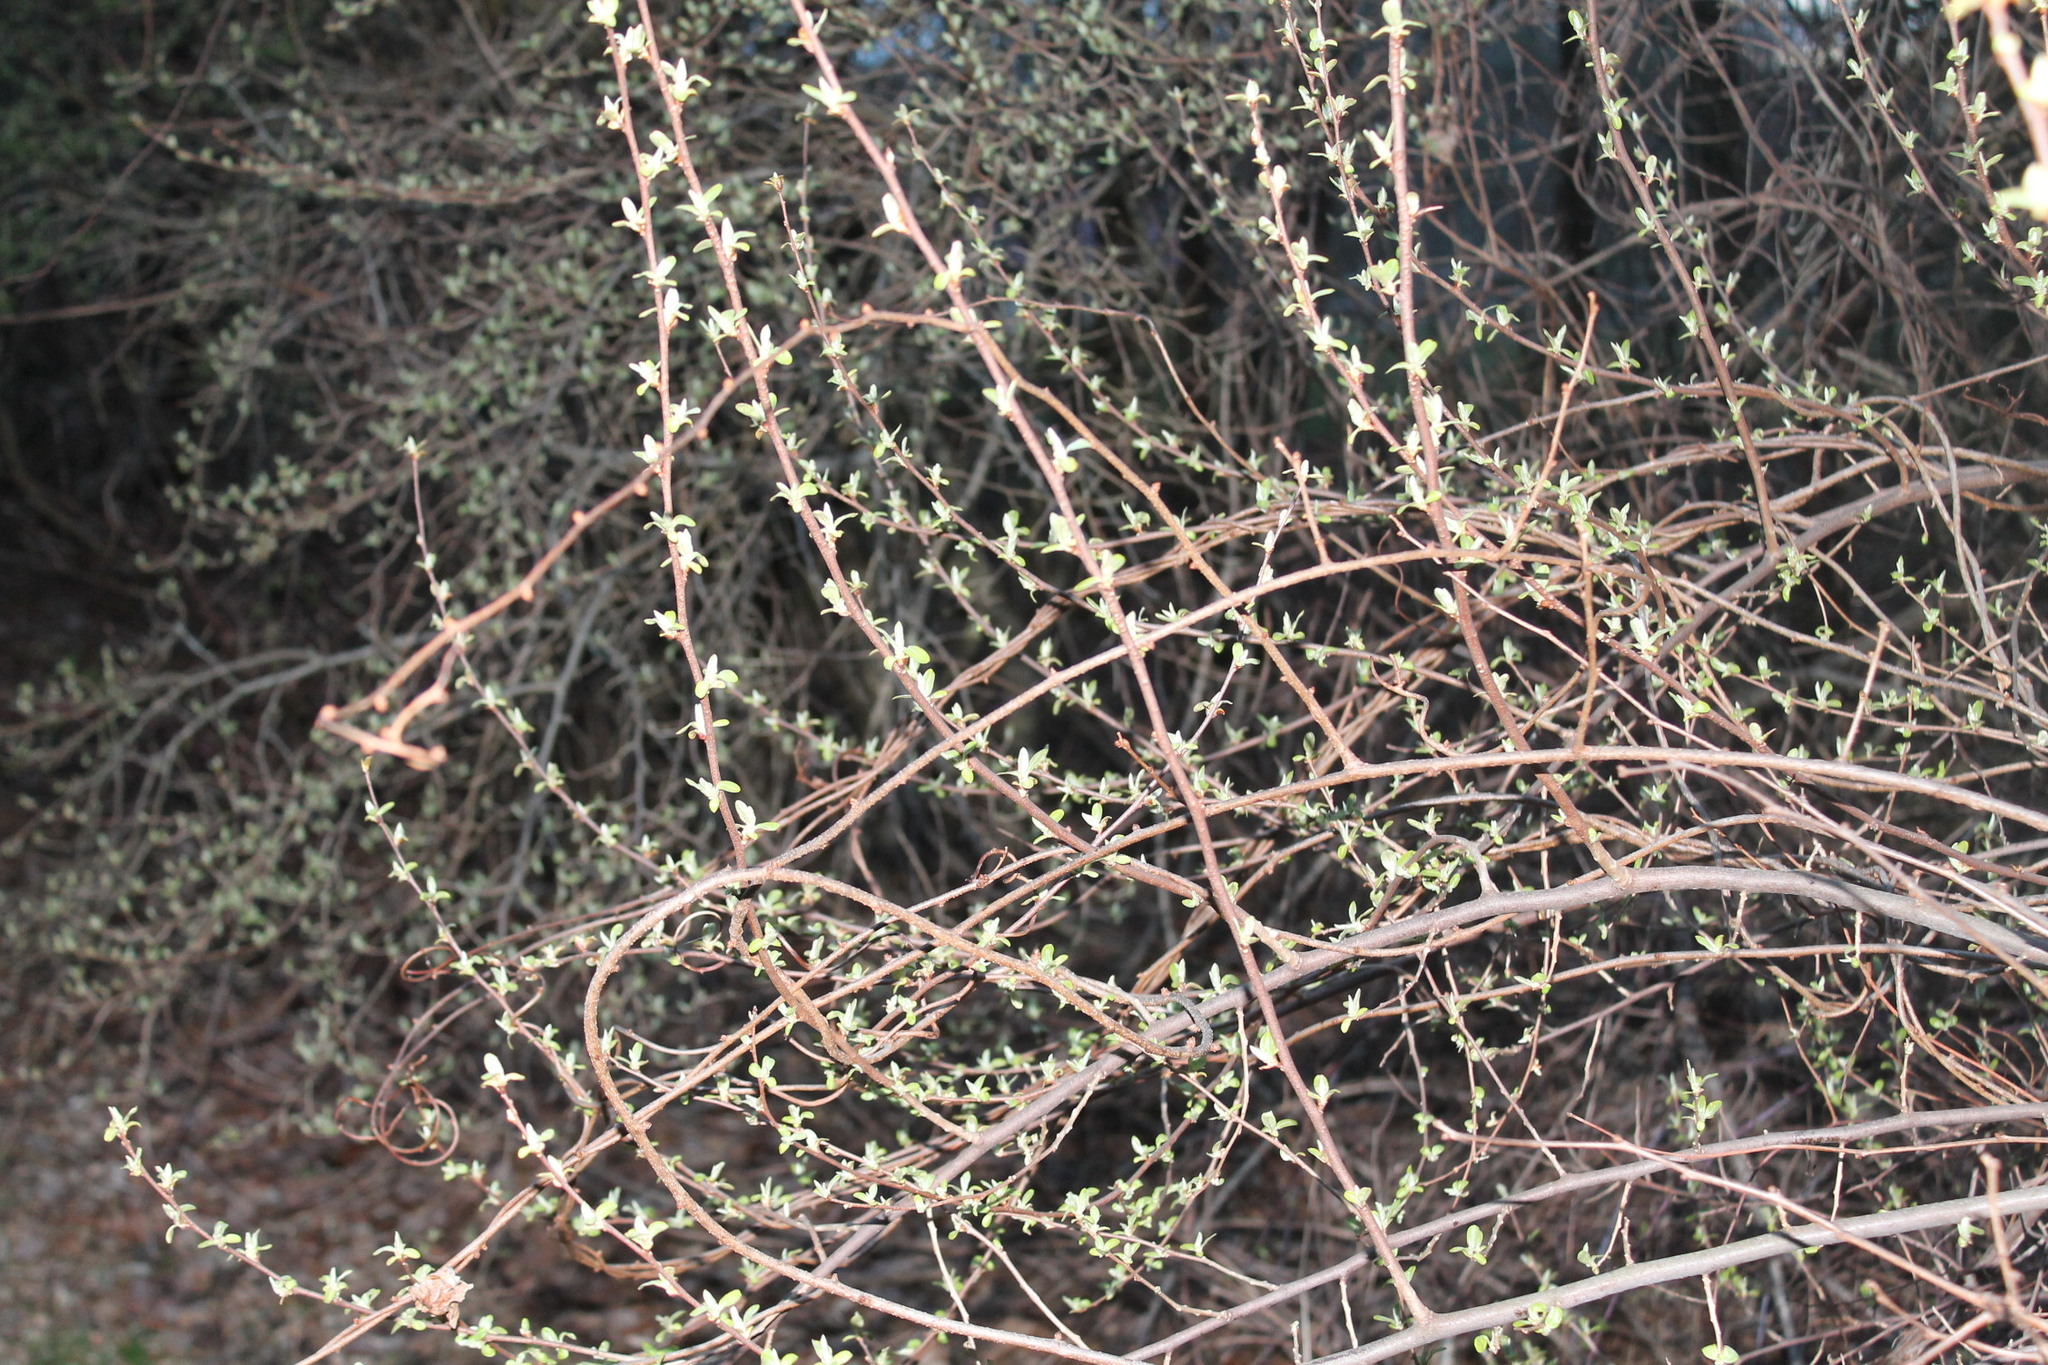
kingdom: Plantae
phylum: Tracheophyta
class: Magnoliopsida
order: Rosales
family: Elaeagnaceae
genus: Elaeagnus
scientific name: Elaeagnus umbellata
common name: Autumn olive
